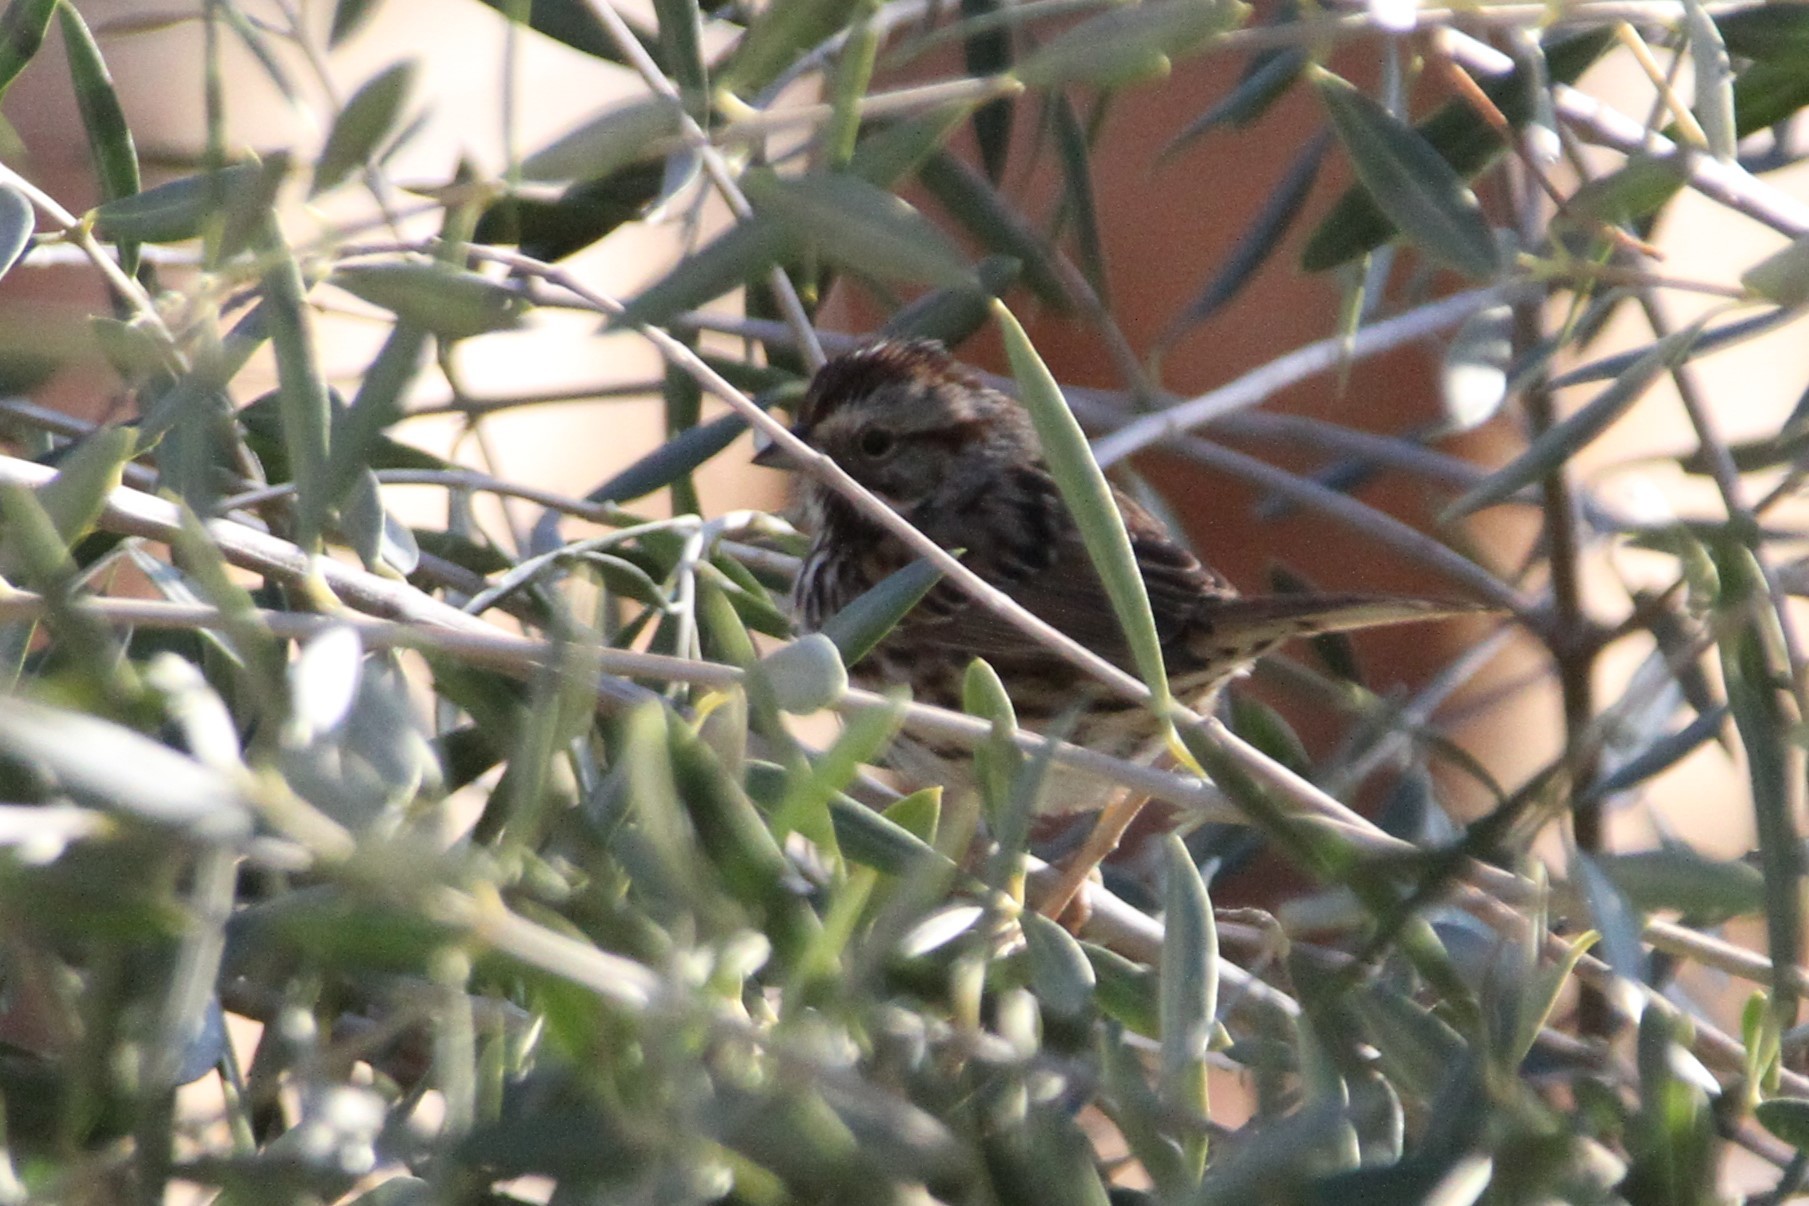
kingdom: Animalia
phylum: Chordata
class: Aves
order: Passeriformes
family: Passerellidae
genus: Melospiza
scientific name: Melospiza melodia
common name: Song sparrow
